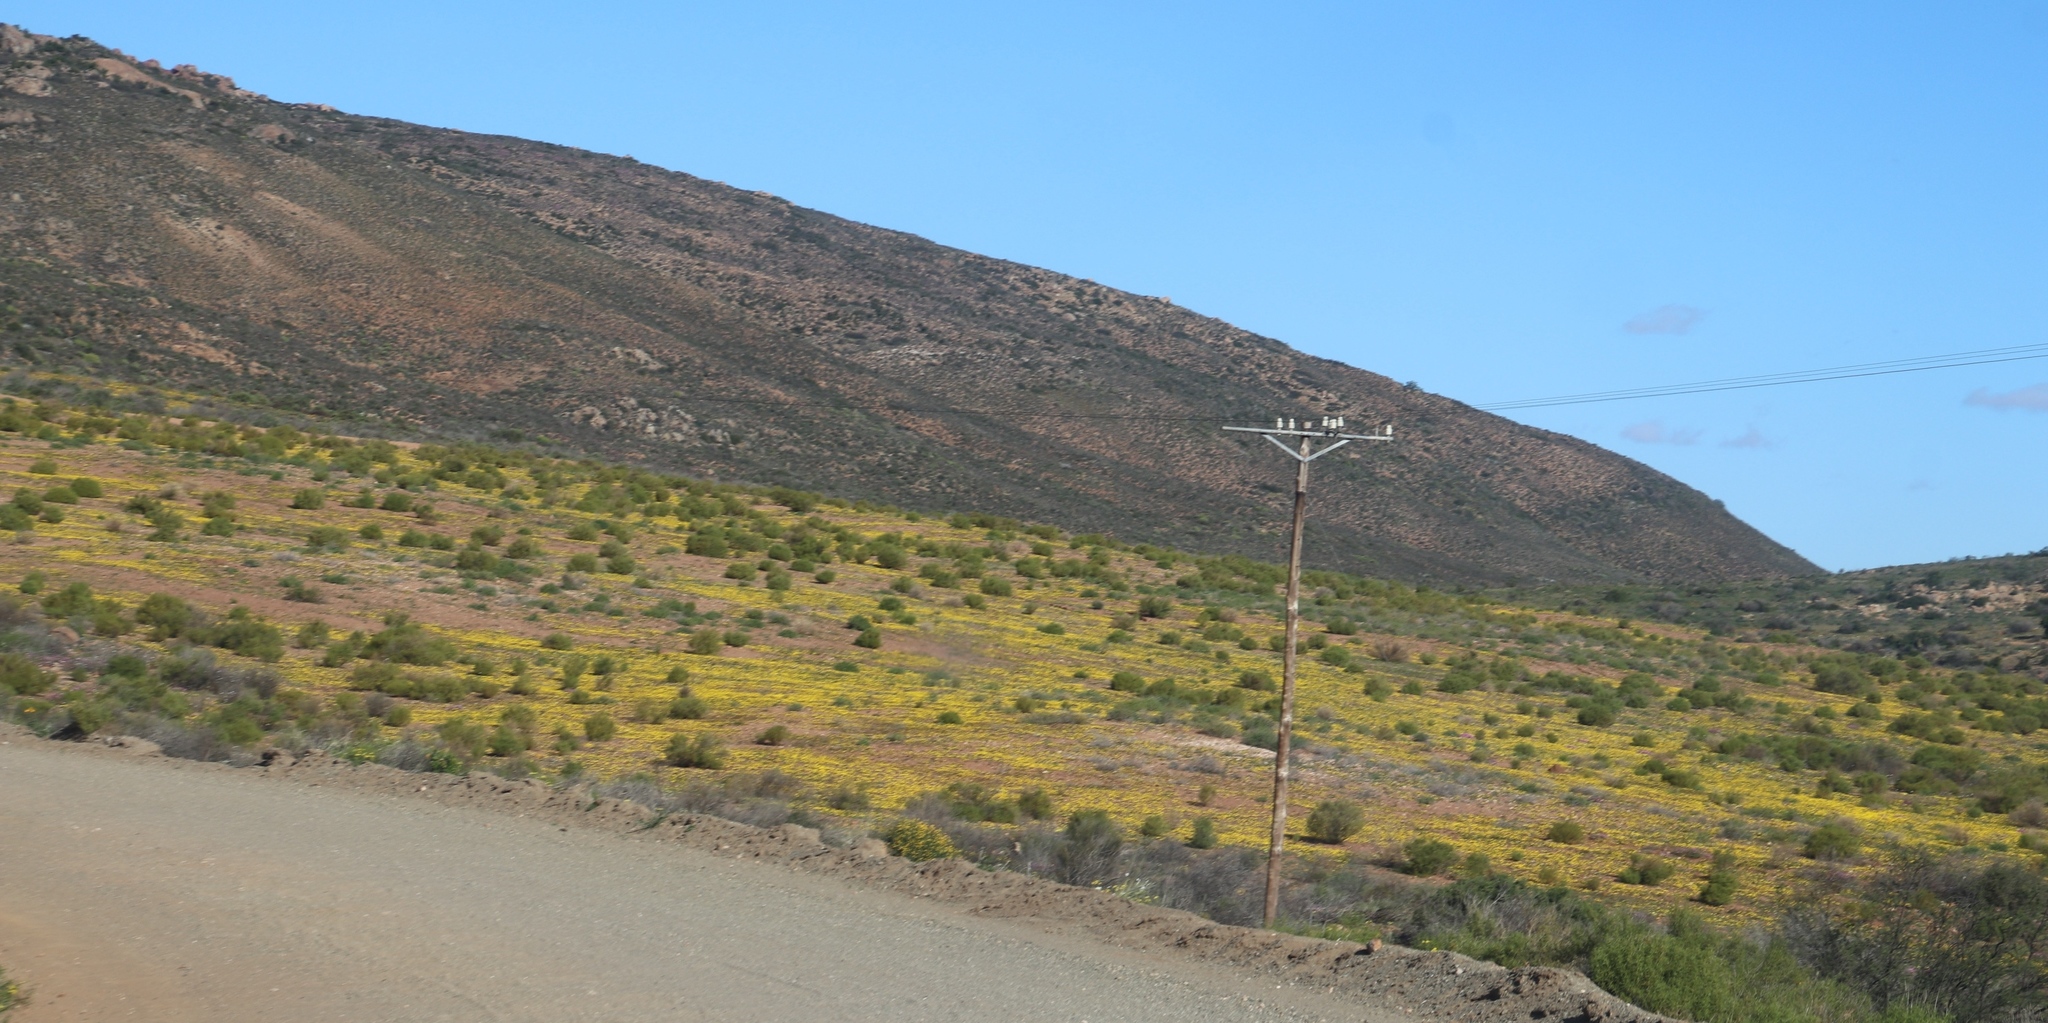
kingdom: Plantae
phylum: Tracheophyta
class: Magnoliopsida
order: Asterales
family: Asteraceae
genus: Senecio
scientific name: Senecio abruptus
